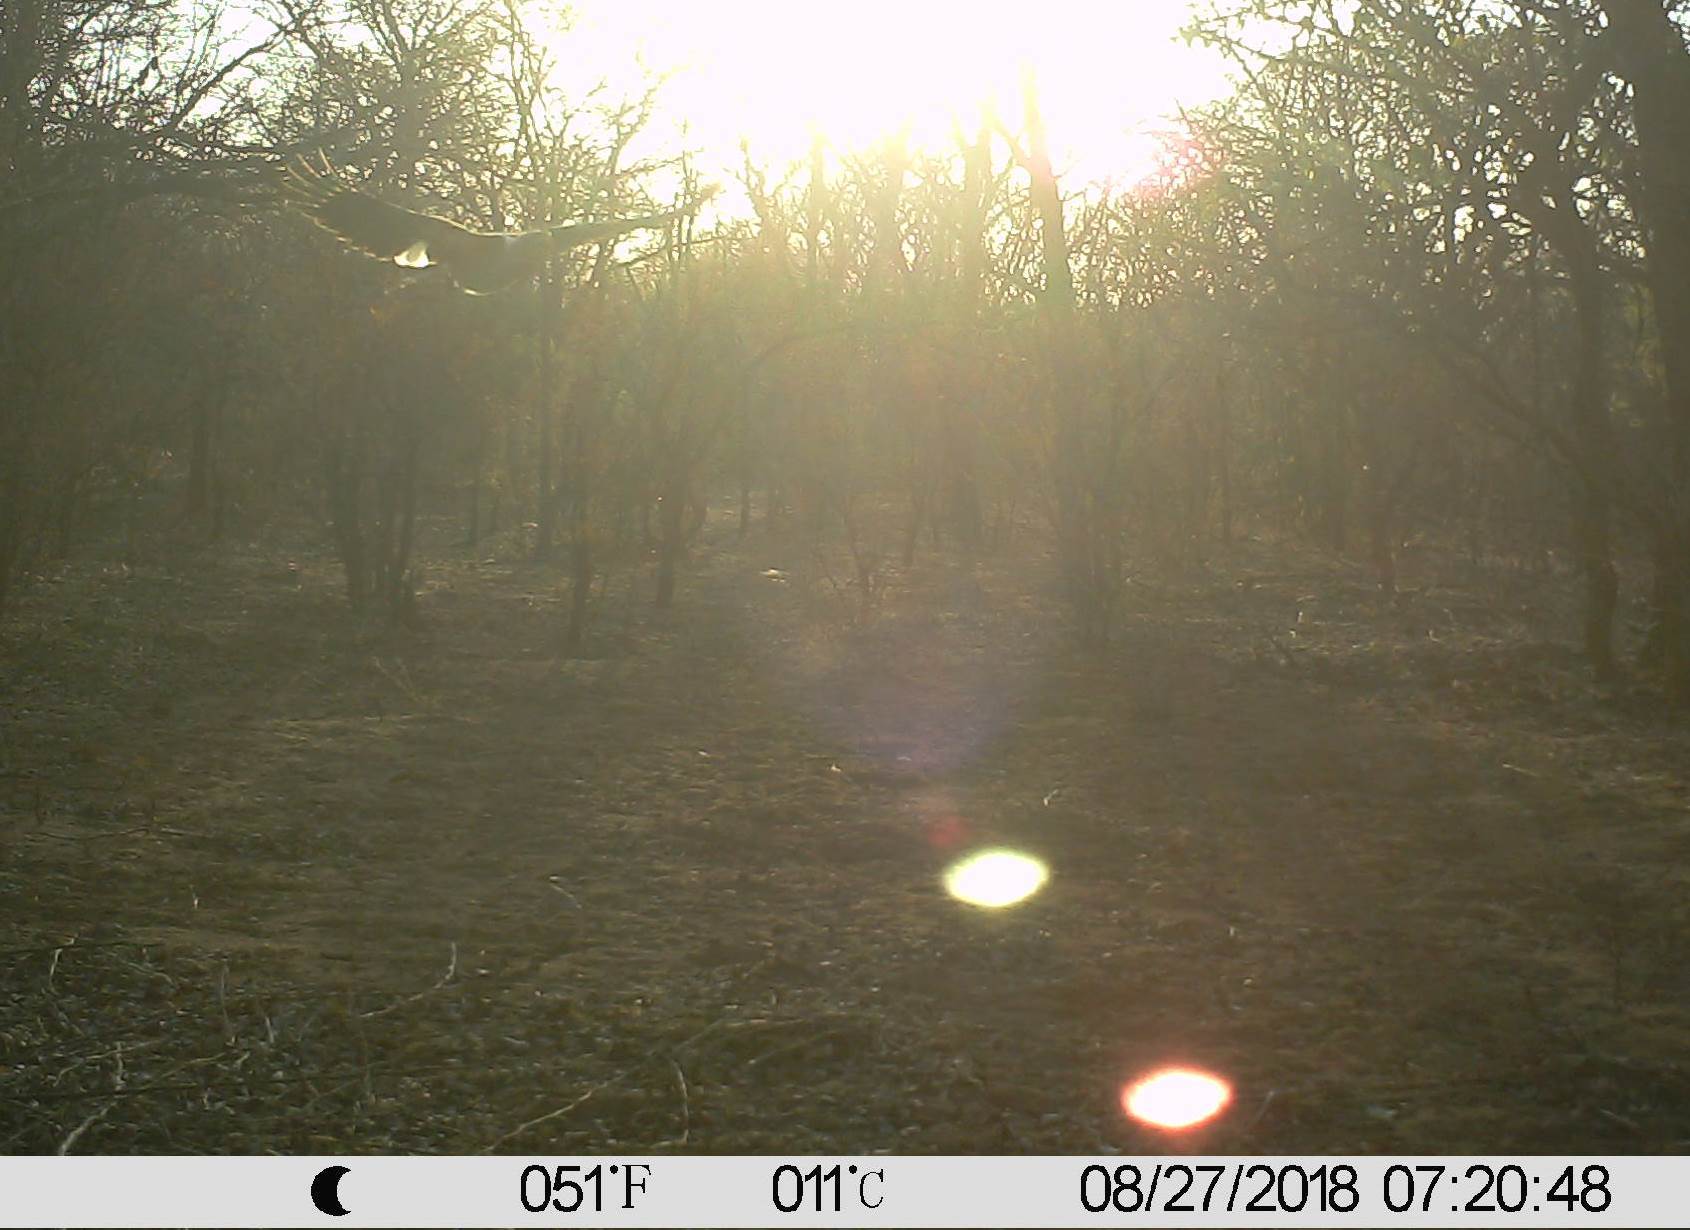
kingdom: Animalia
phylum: Chordata
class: Aves
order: Accipitriformes
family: Accipitridae
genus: Haliaeetus
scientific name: Haliaeetus vocifer
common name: African fish eagle
